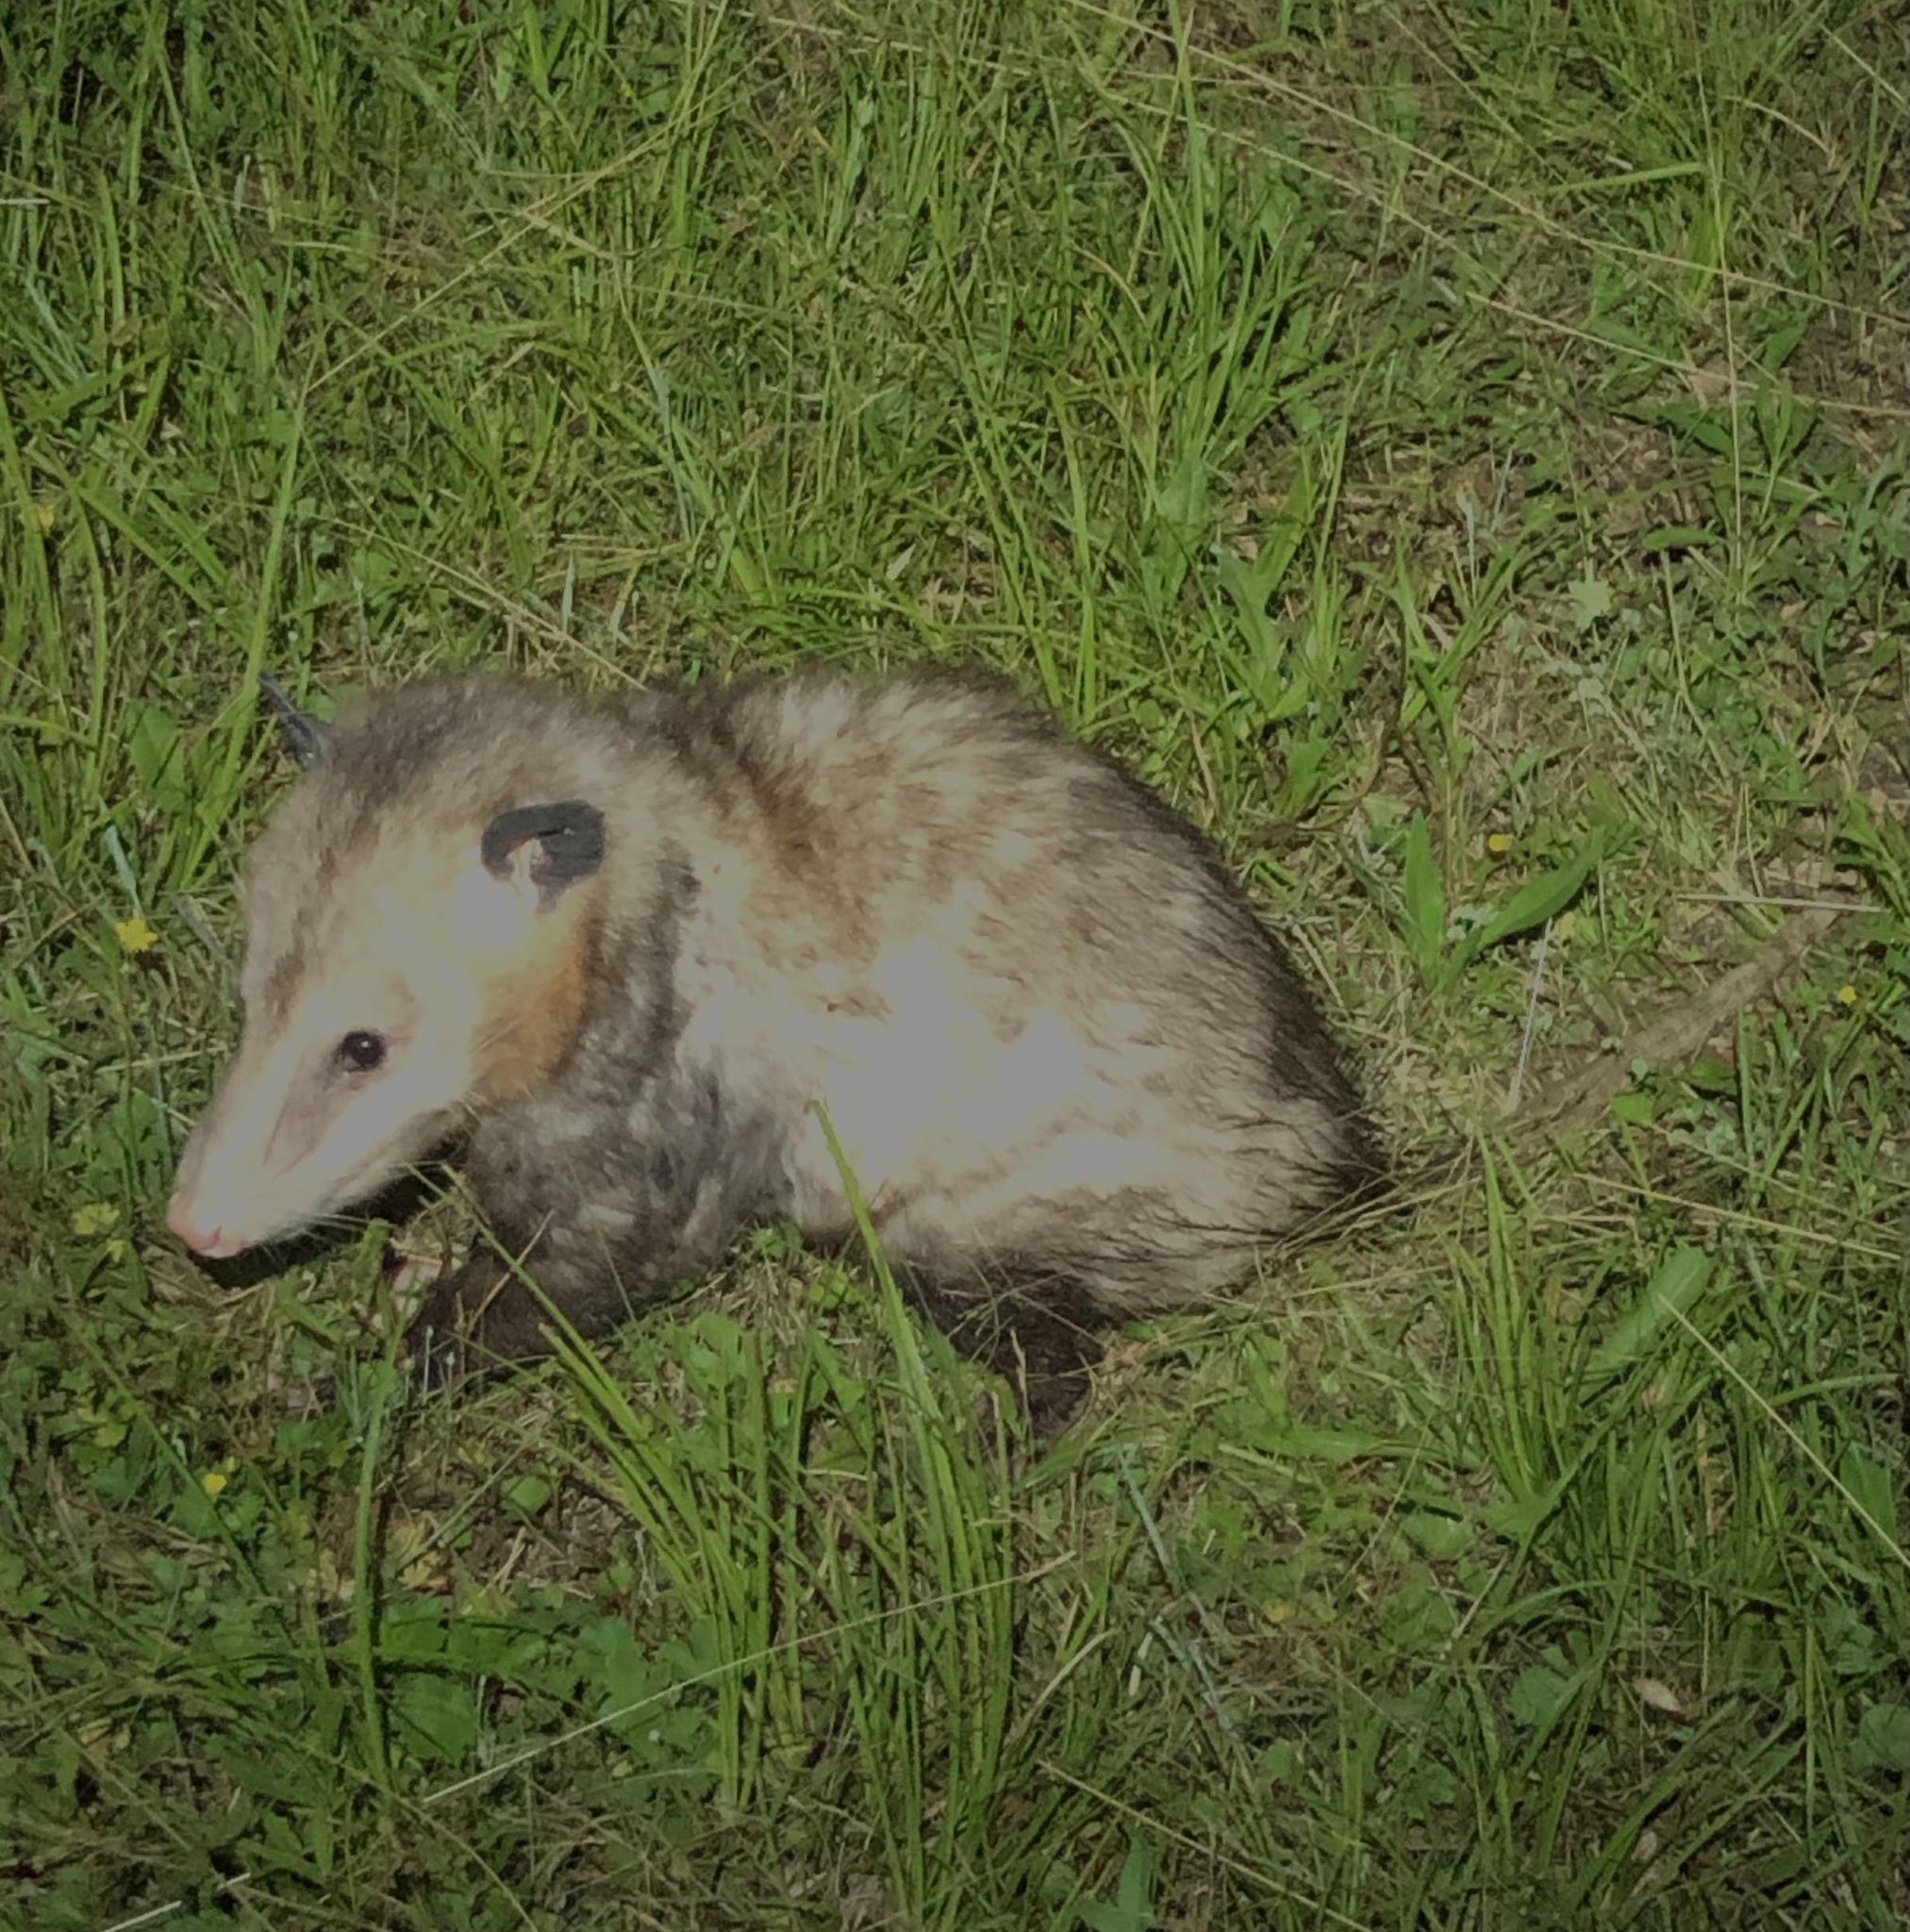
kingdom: Animalia
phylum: Chordata
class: Mammalia
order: Didelphimorphia
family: Didelphidae
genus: Didelphis
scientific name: Didelphis virginiana
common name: Virginia opossum
